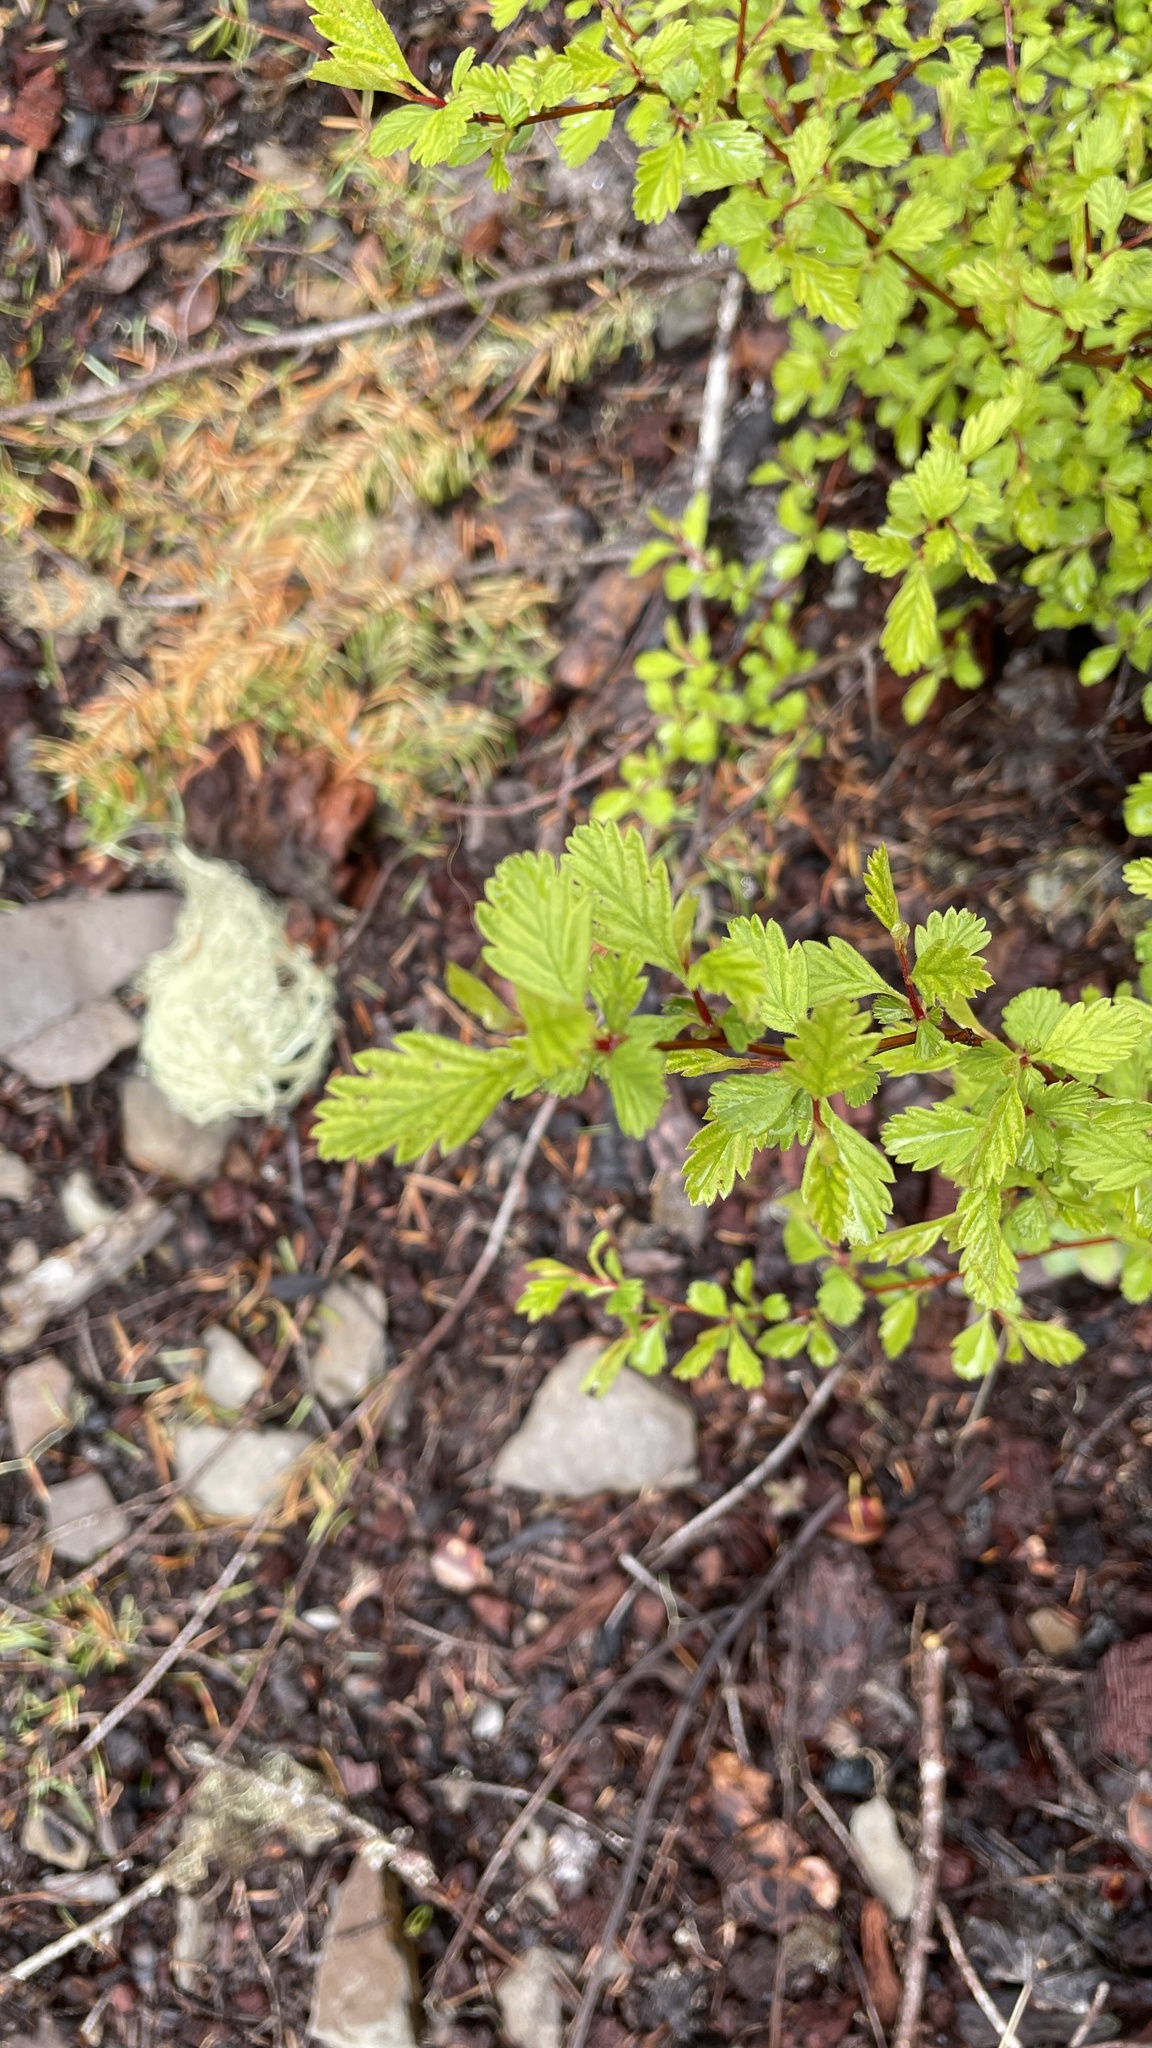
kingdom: Plantae
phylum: Tracheophyta
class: Magnoliopsida
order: Rosales
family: Rosaceae
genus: Holodiscus
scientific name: Holodiscus discolor
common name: Oceanspray
